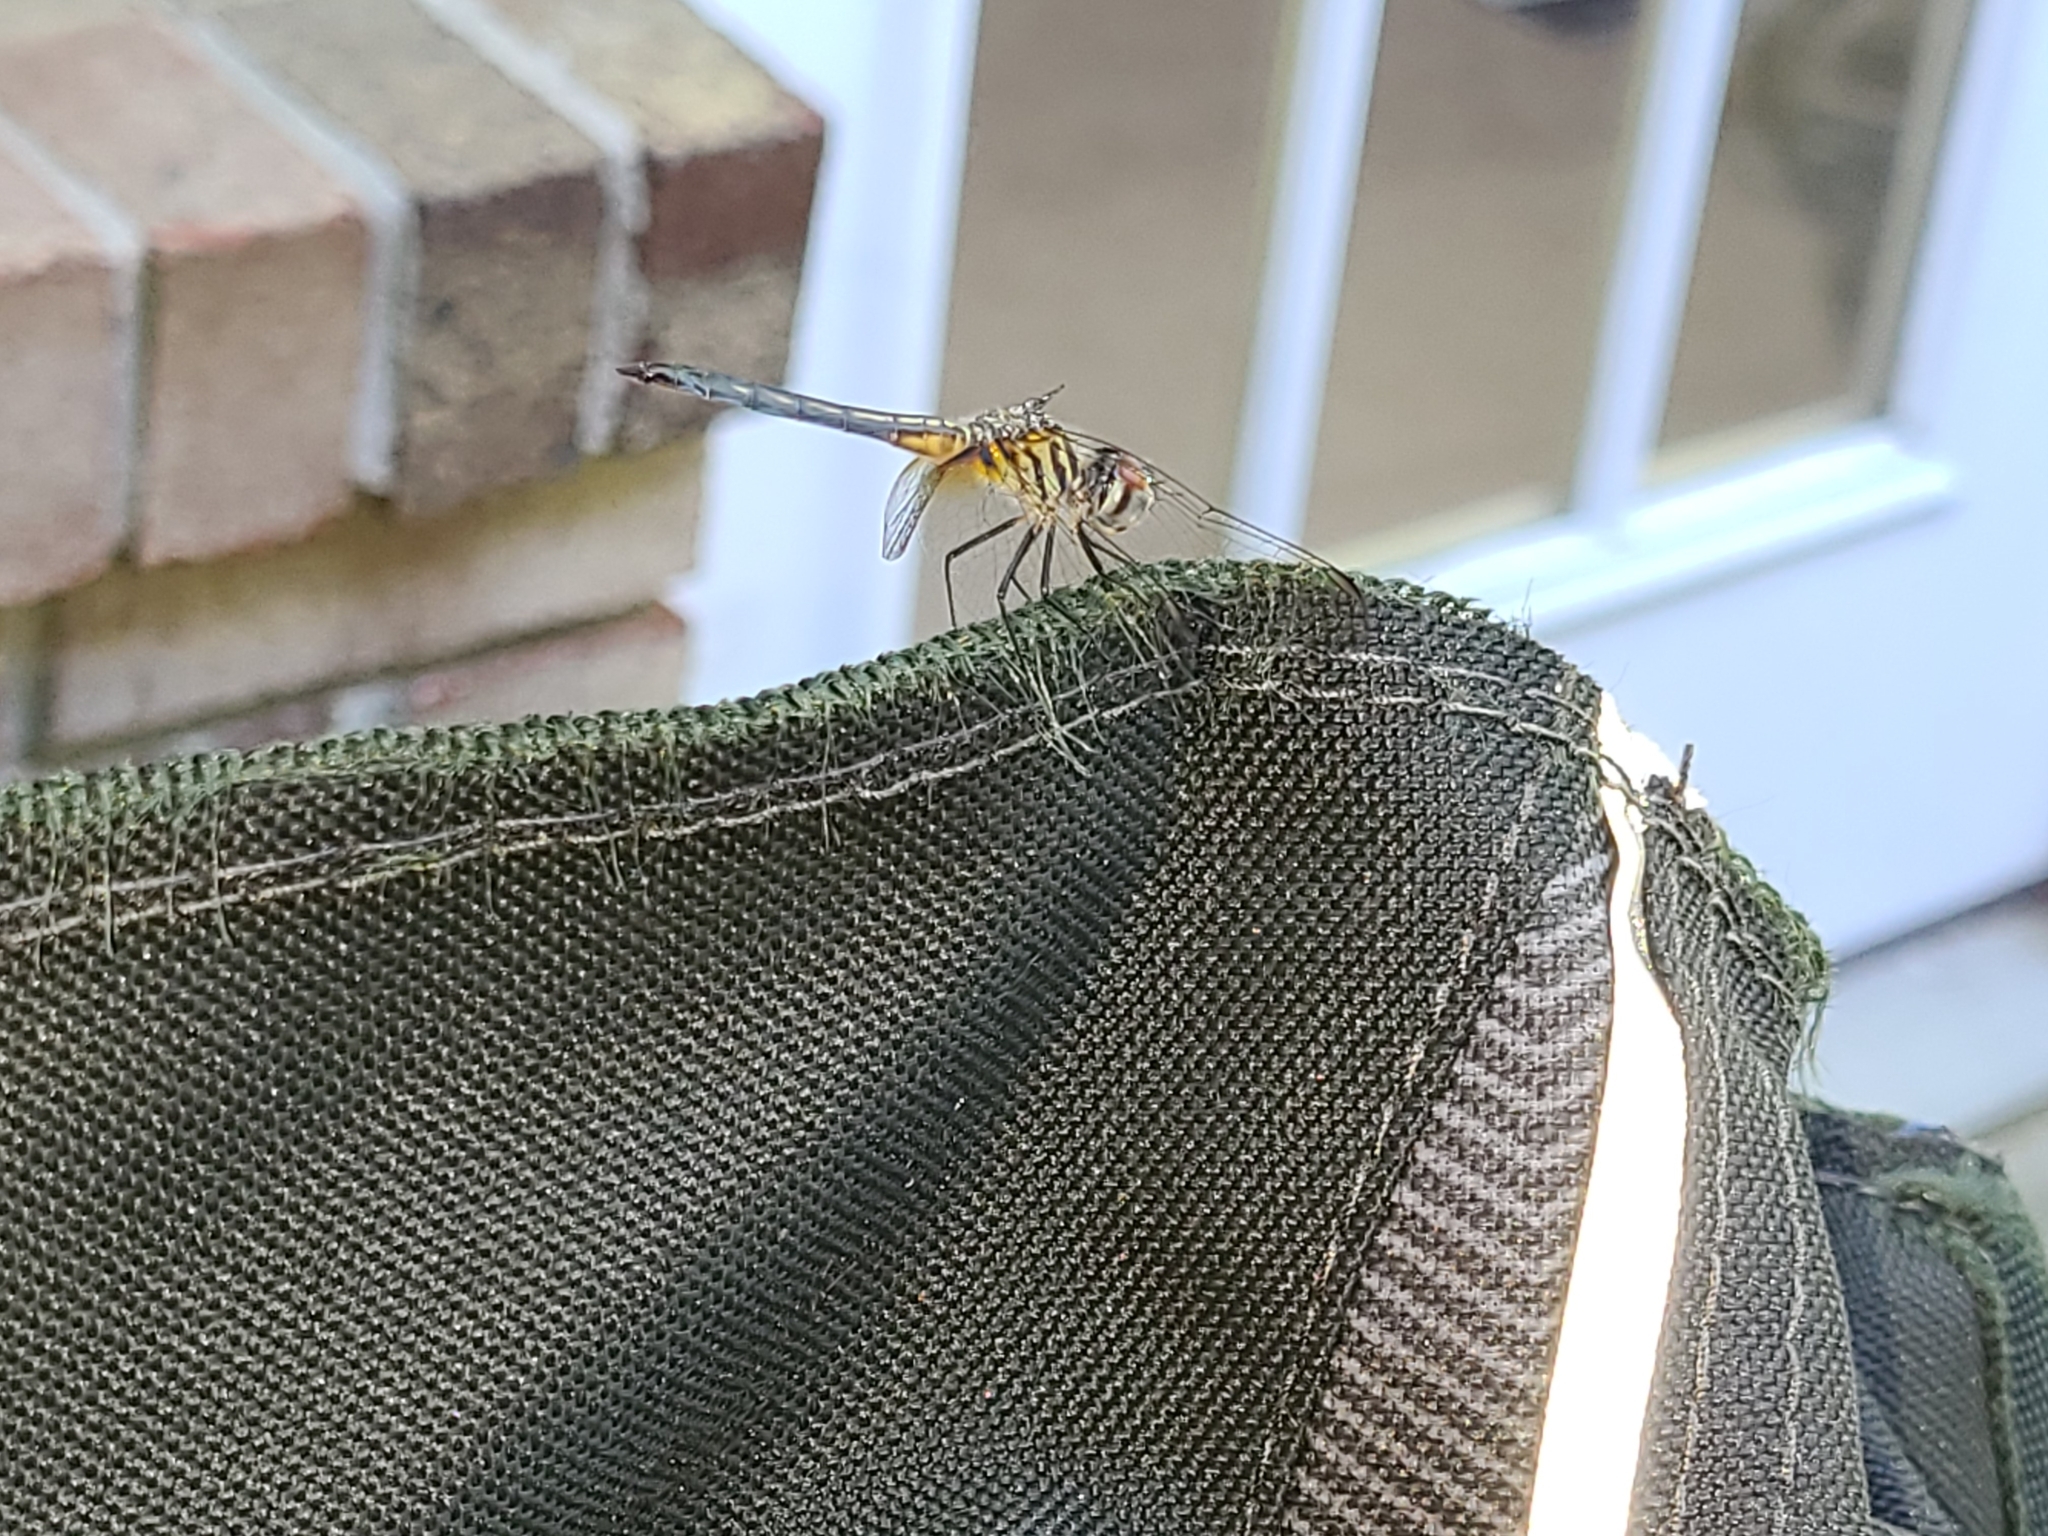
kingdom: Animalia
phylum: Arthropoda
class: Insecta
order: Odonata
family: Libellulidae
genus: Pachydiplax
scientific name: Pachydiplax longipennis
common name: Blue dasher
